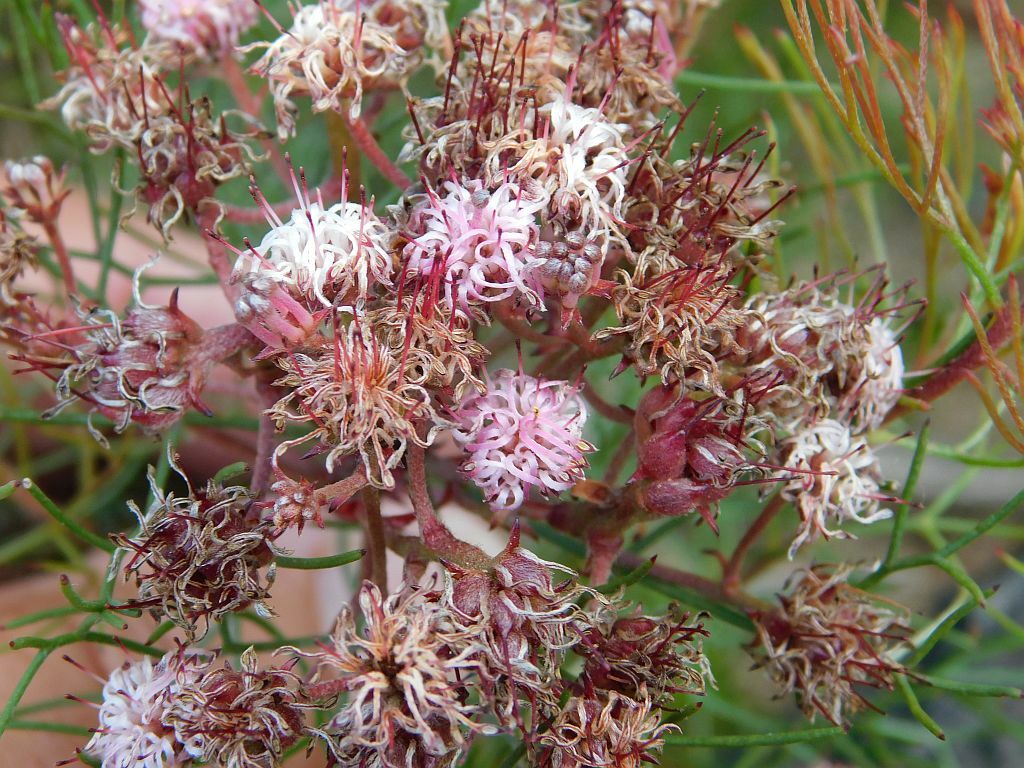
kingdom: Plantae
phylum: Tracheophyta
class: Magnoliopsida
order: Proteales
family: Proteaceae
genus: Serruria
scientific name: Serruria fasciflora
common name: Common pin spiderhead
